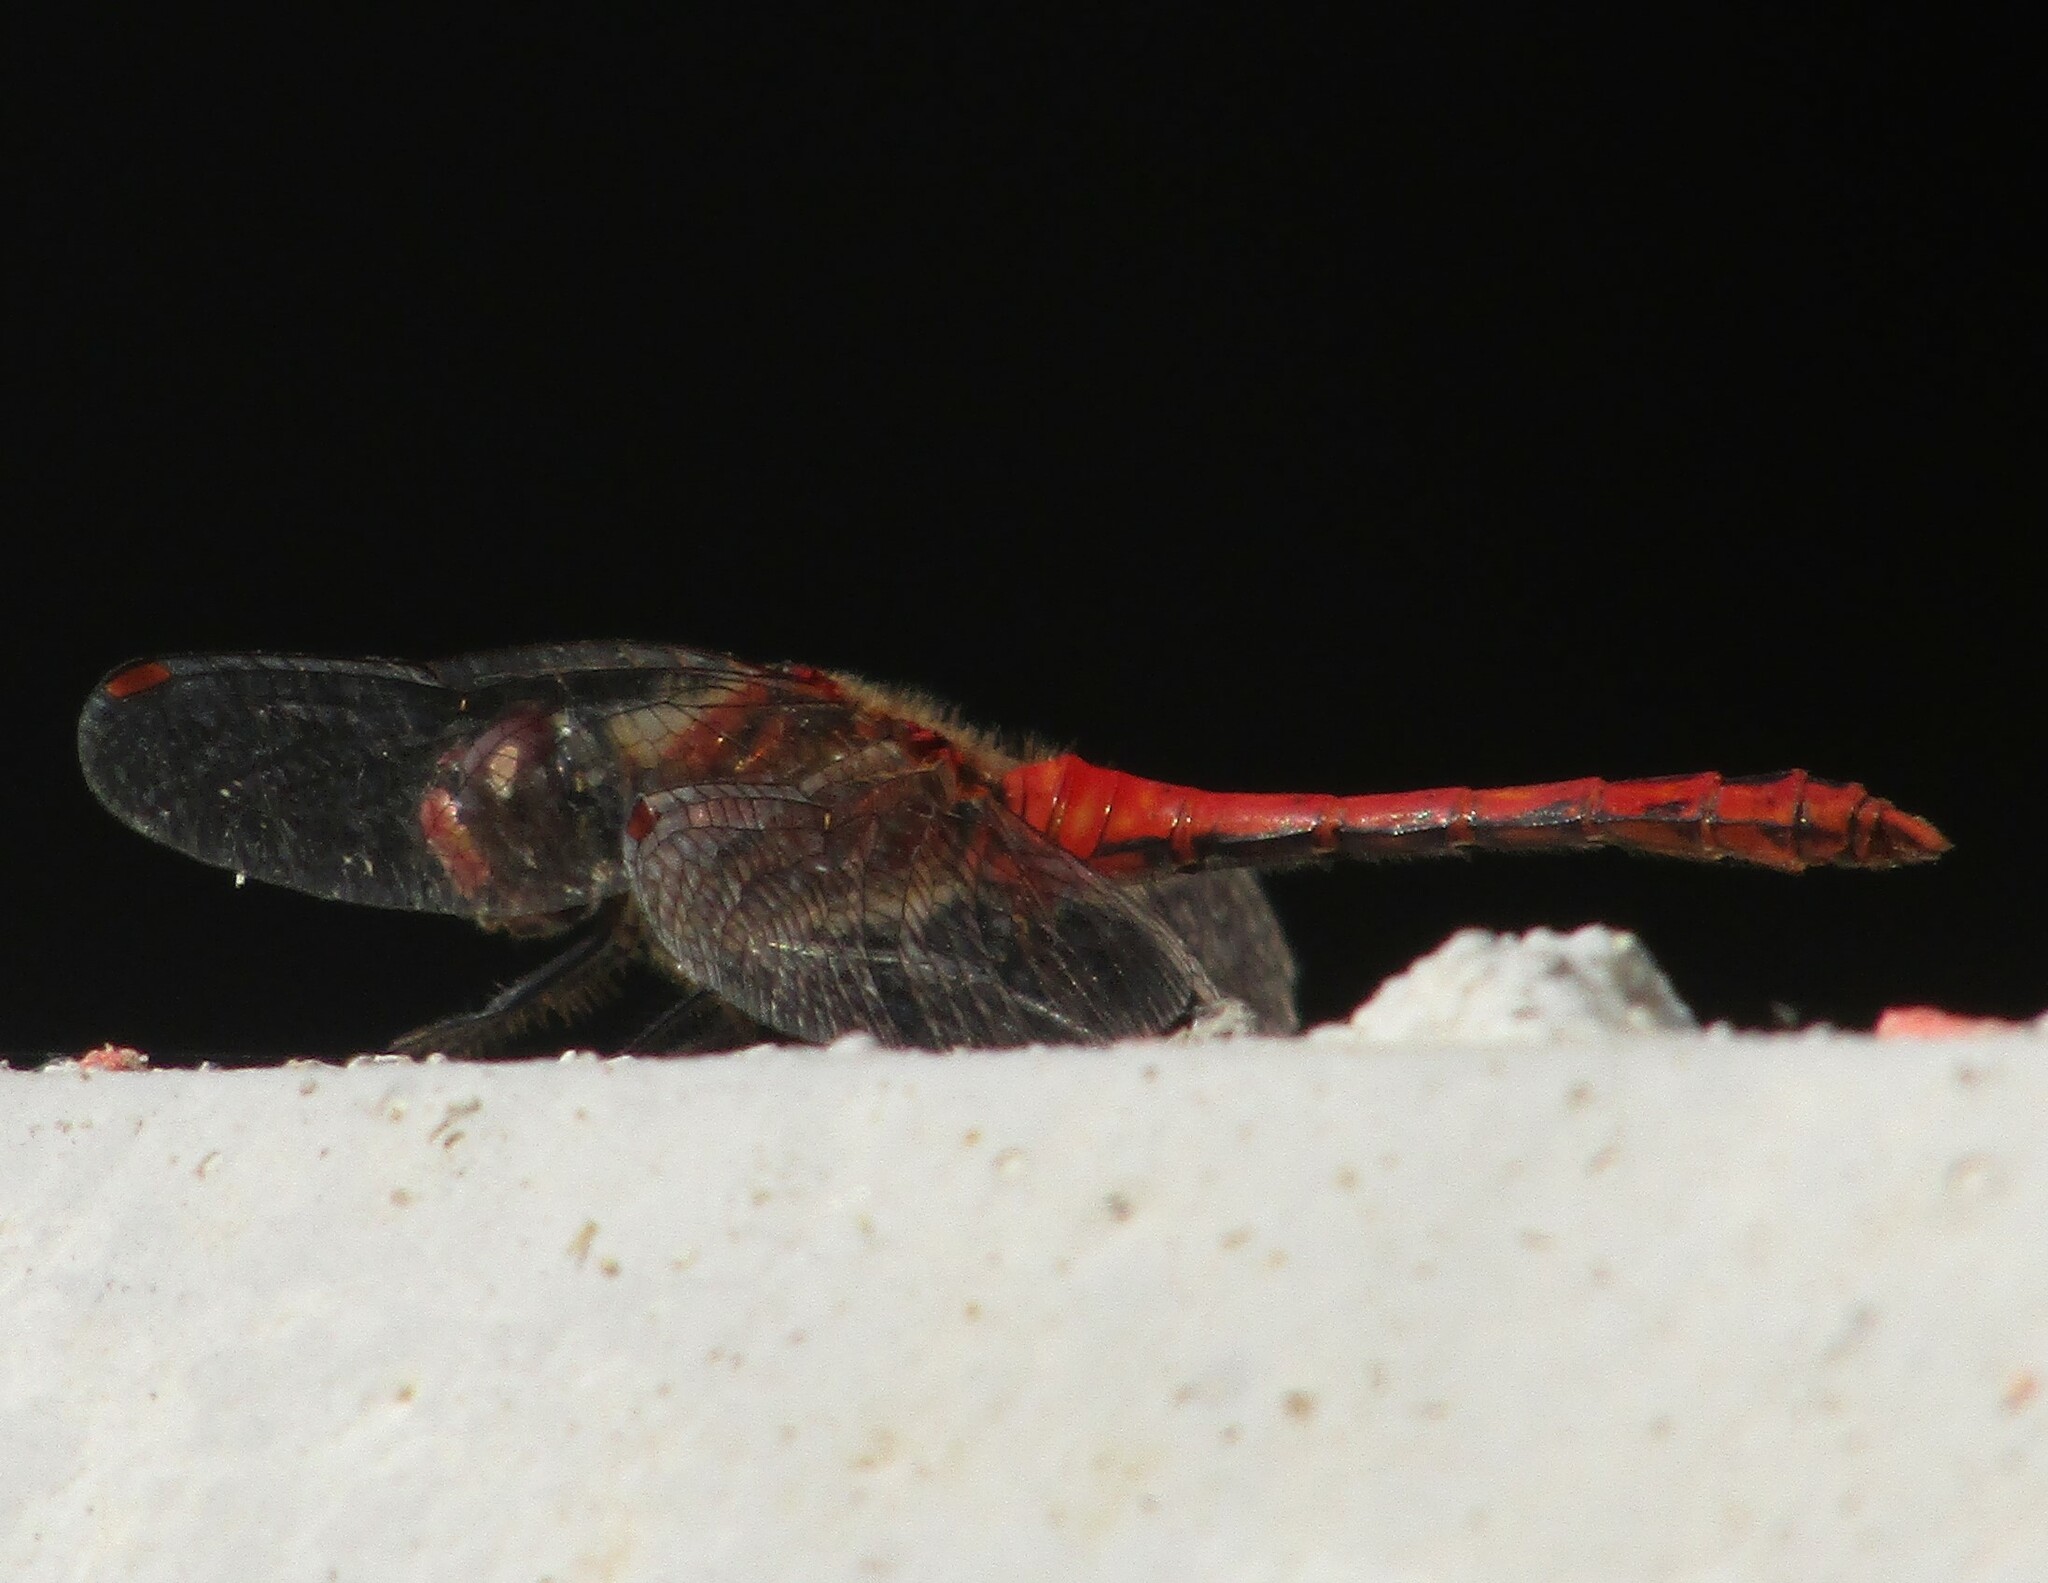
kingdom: Animalia
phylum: Arthropoda
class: Insecta
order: Odonata
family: Libellulidae
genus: Sympetrum
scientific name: Sympetrum sanguineum
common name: Ruddy darter
